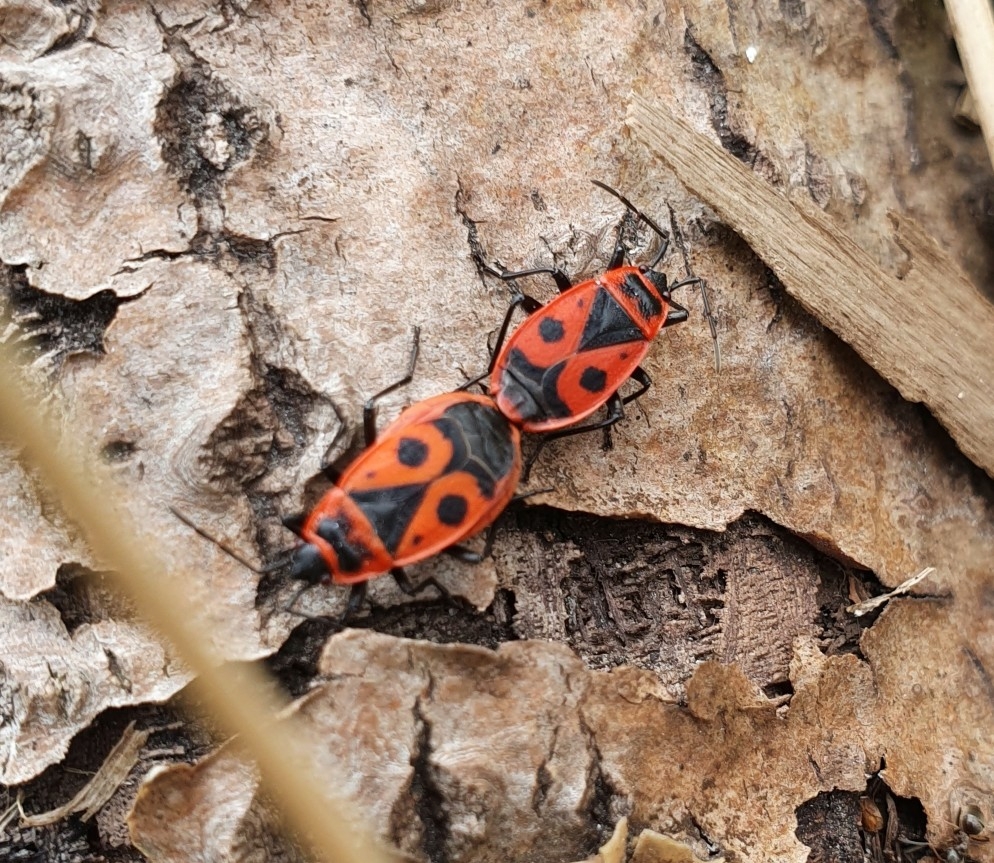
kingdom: Animalia
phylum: Arthropoda
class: Insecta
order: Hemiptera
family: Pyrrhocoridae
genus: Pyrrhocoris
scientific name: Pyrrhocoris apterus
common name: Firebug
